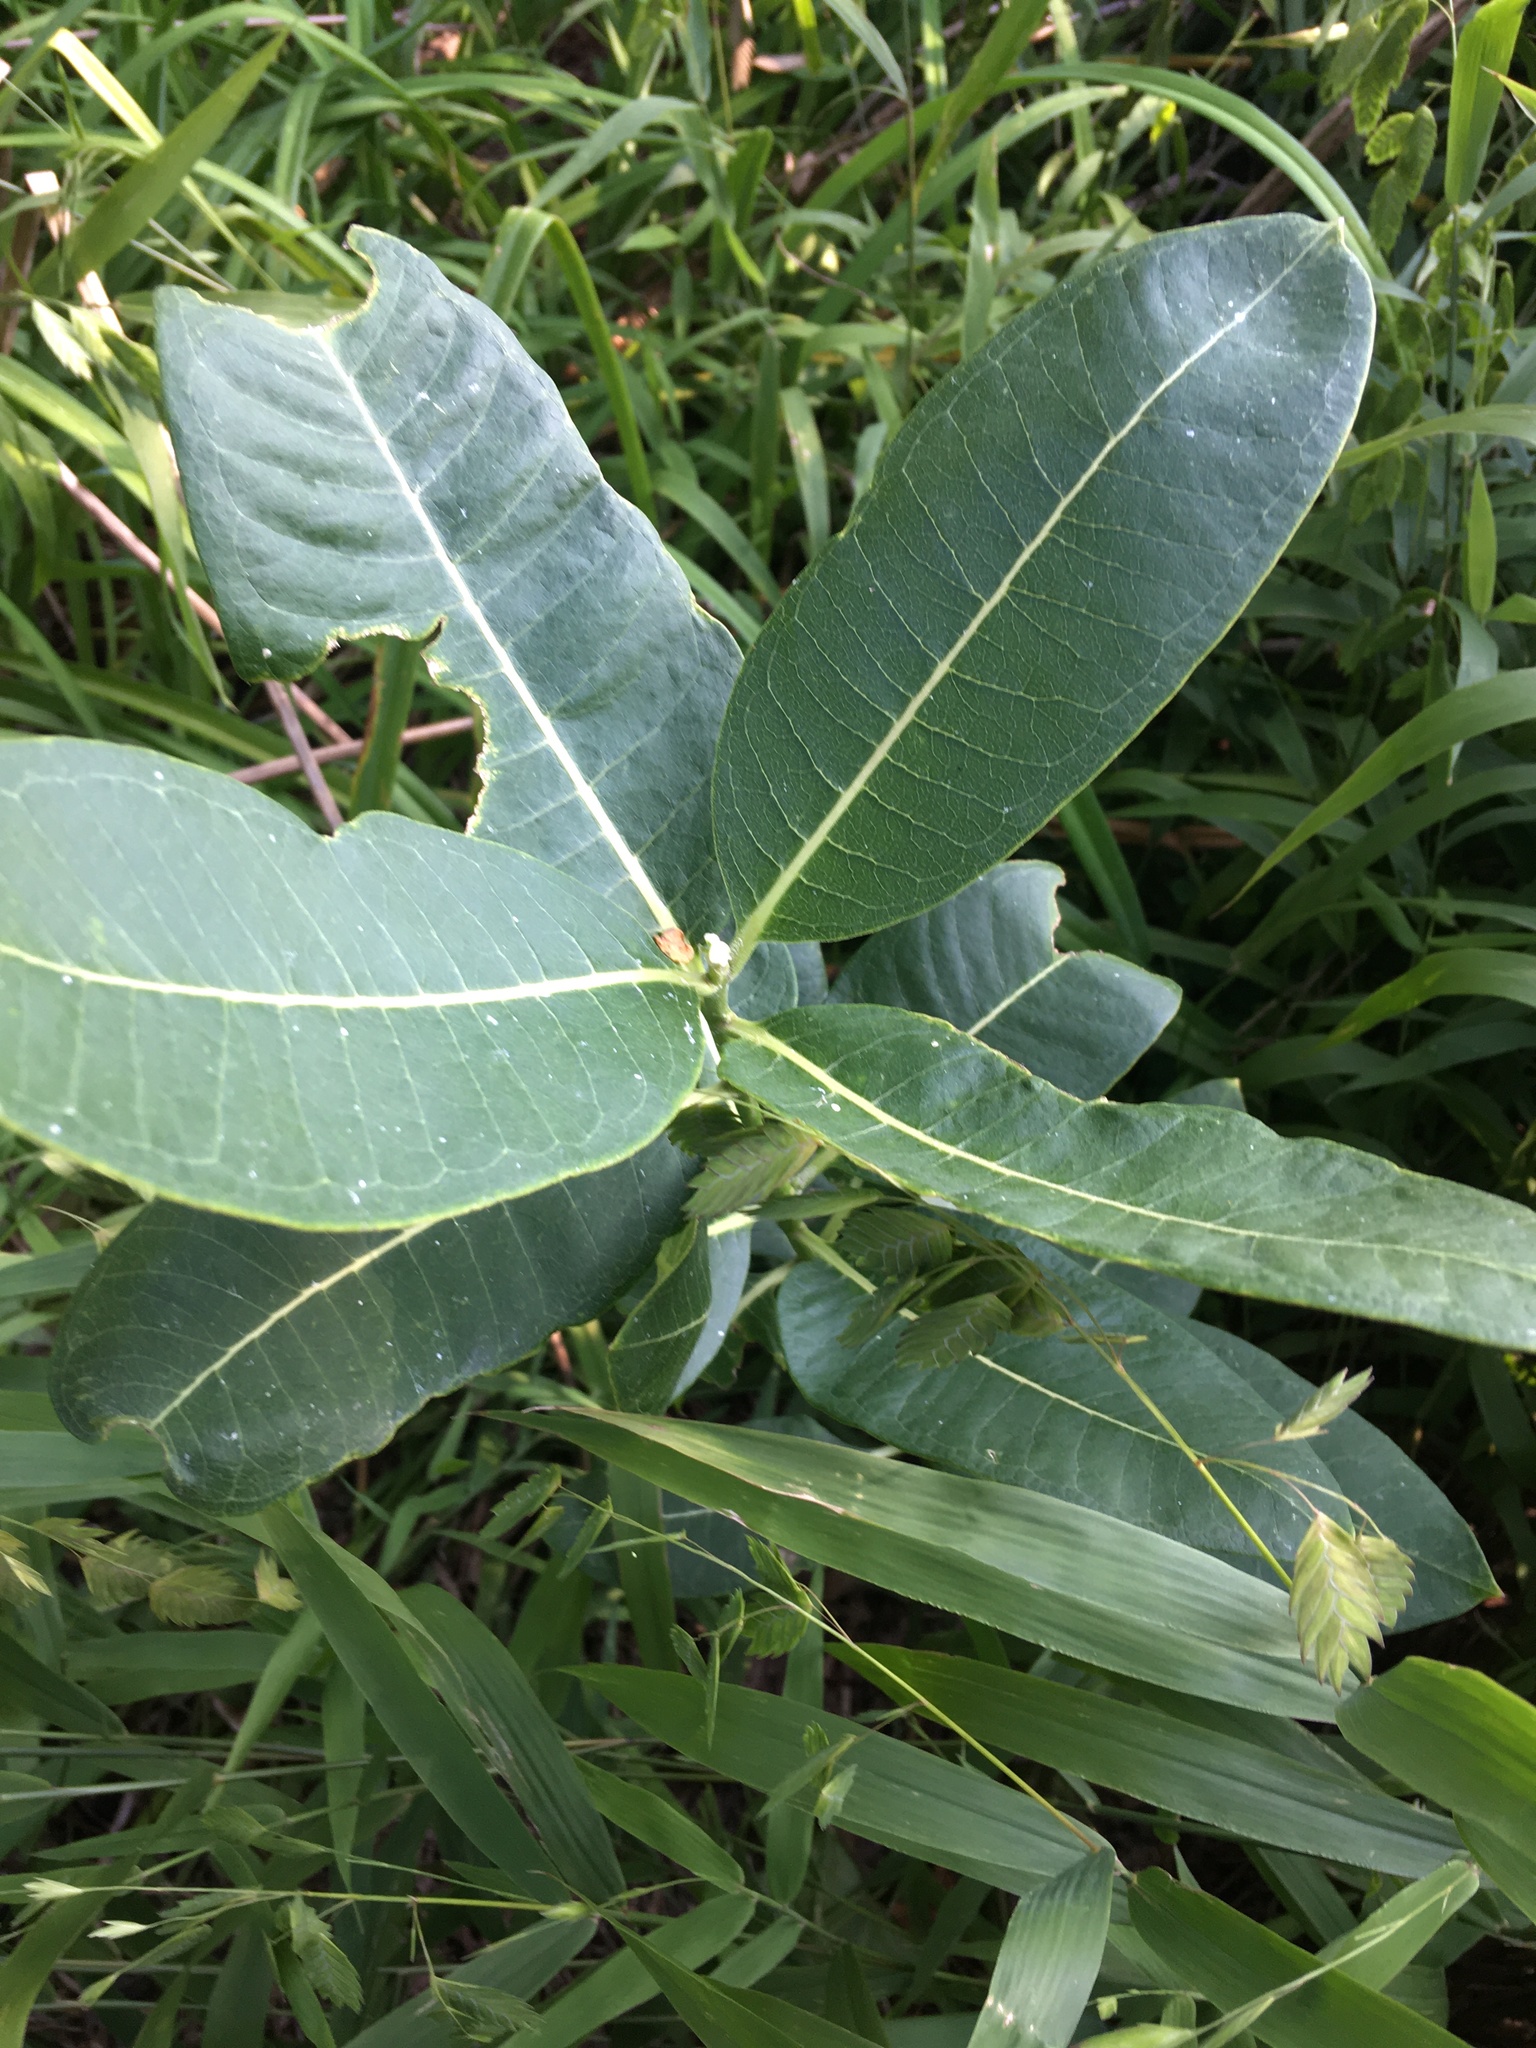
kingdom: Plantae
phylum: Tracheophyta
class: Magnoliopsida
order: Gentianales
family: Apocynaceae
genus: Asclepias
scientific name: Asclepias syriaca
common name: Common milkweed
